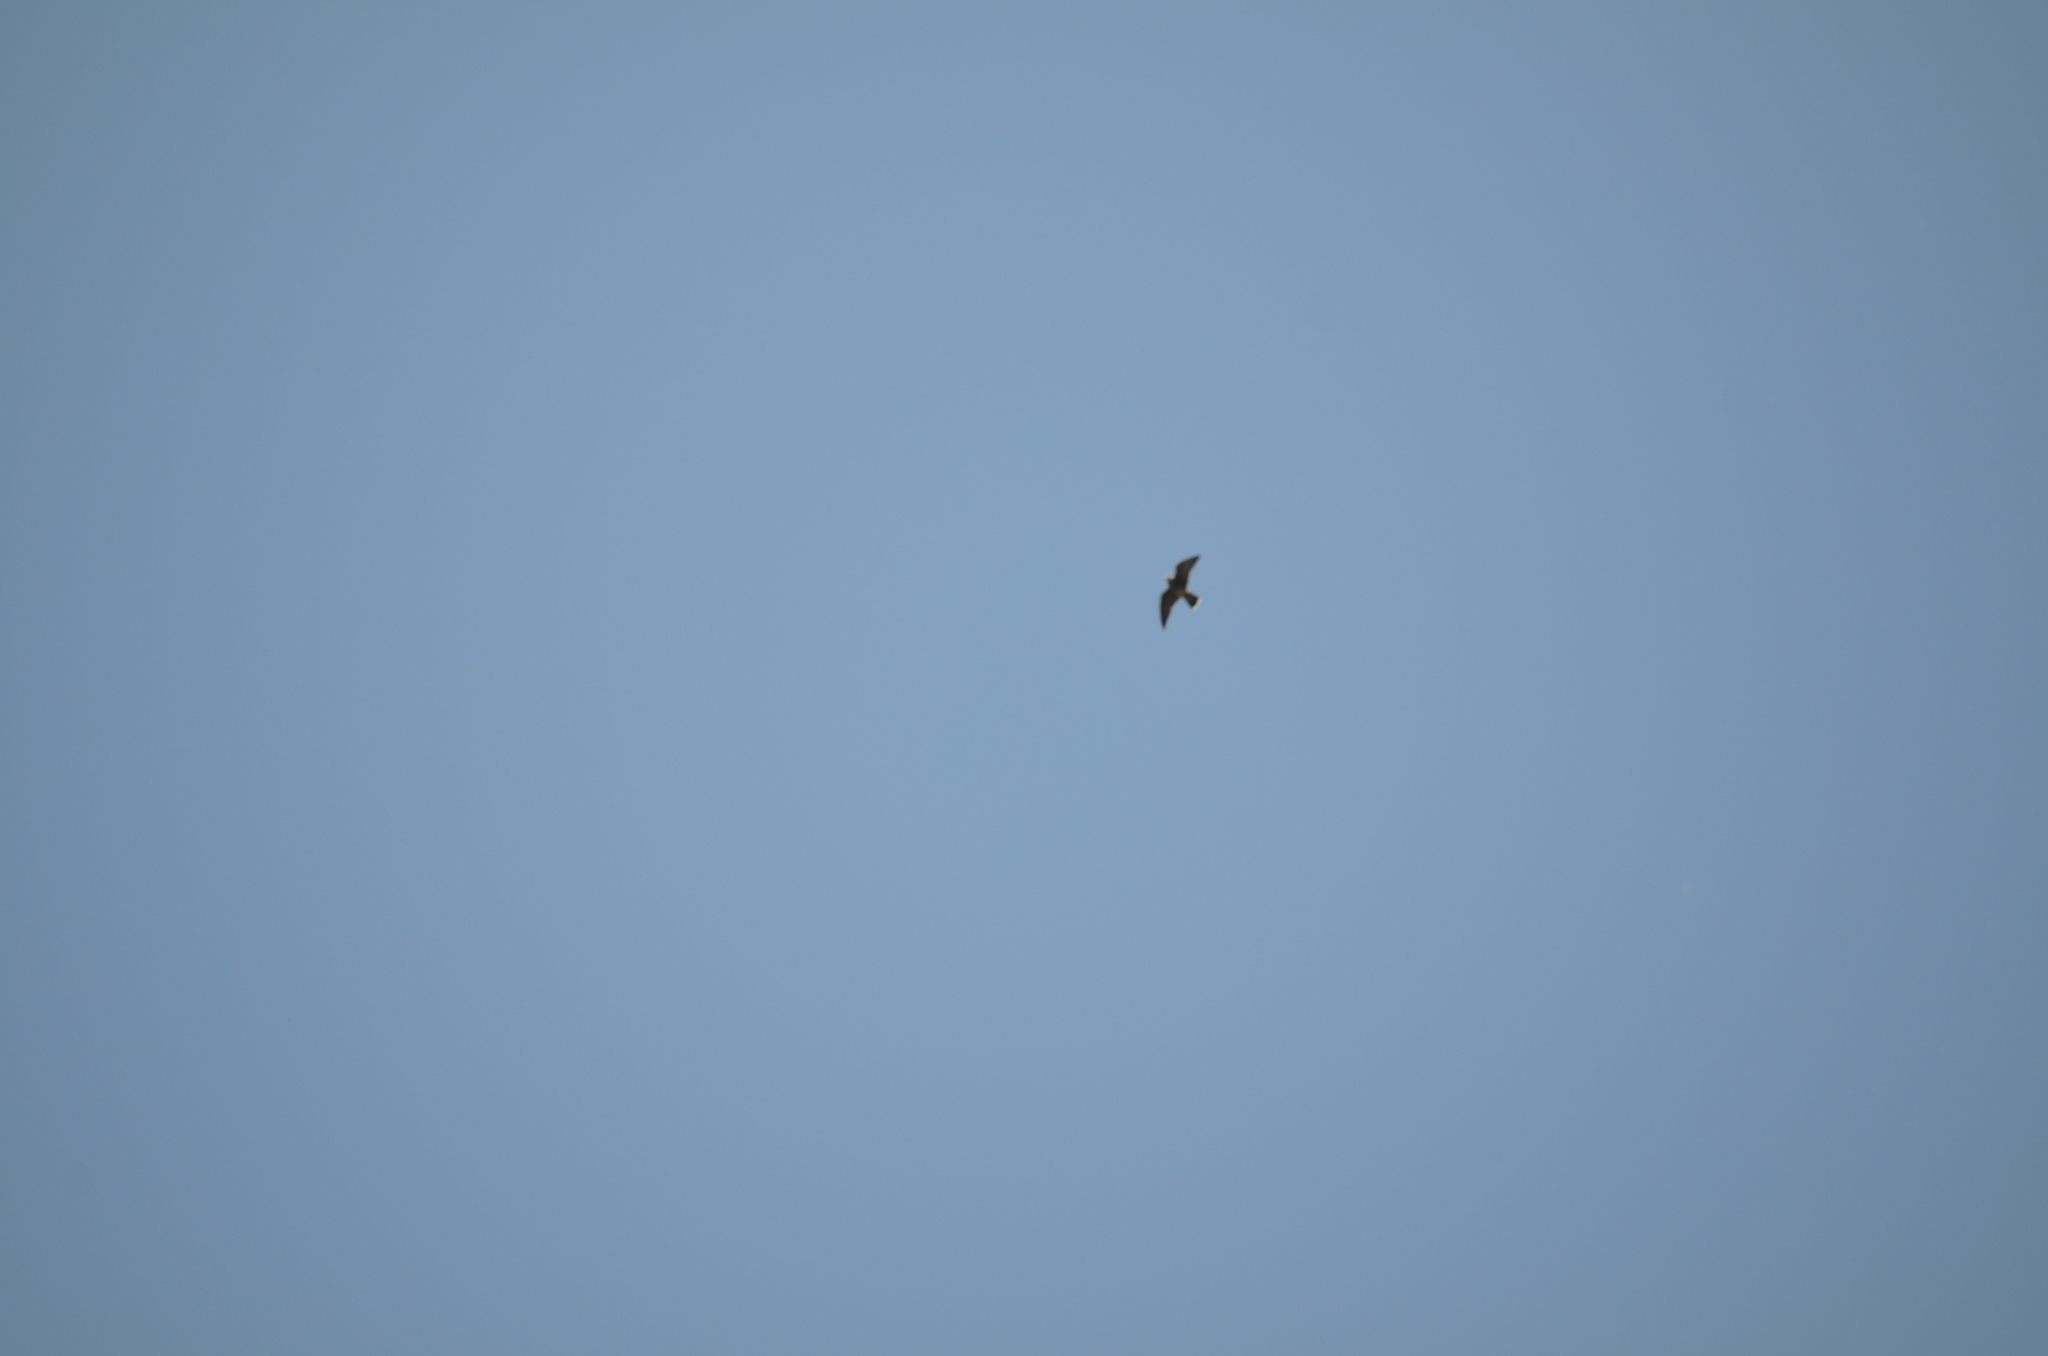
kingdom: Animalia
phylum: Chordata
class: Aves
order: Falconiformes
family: Falconidae
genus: Falco
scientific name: Falco peregrinus
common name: Peregrine falcon
